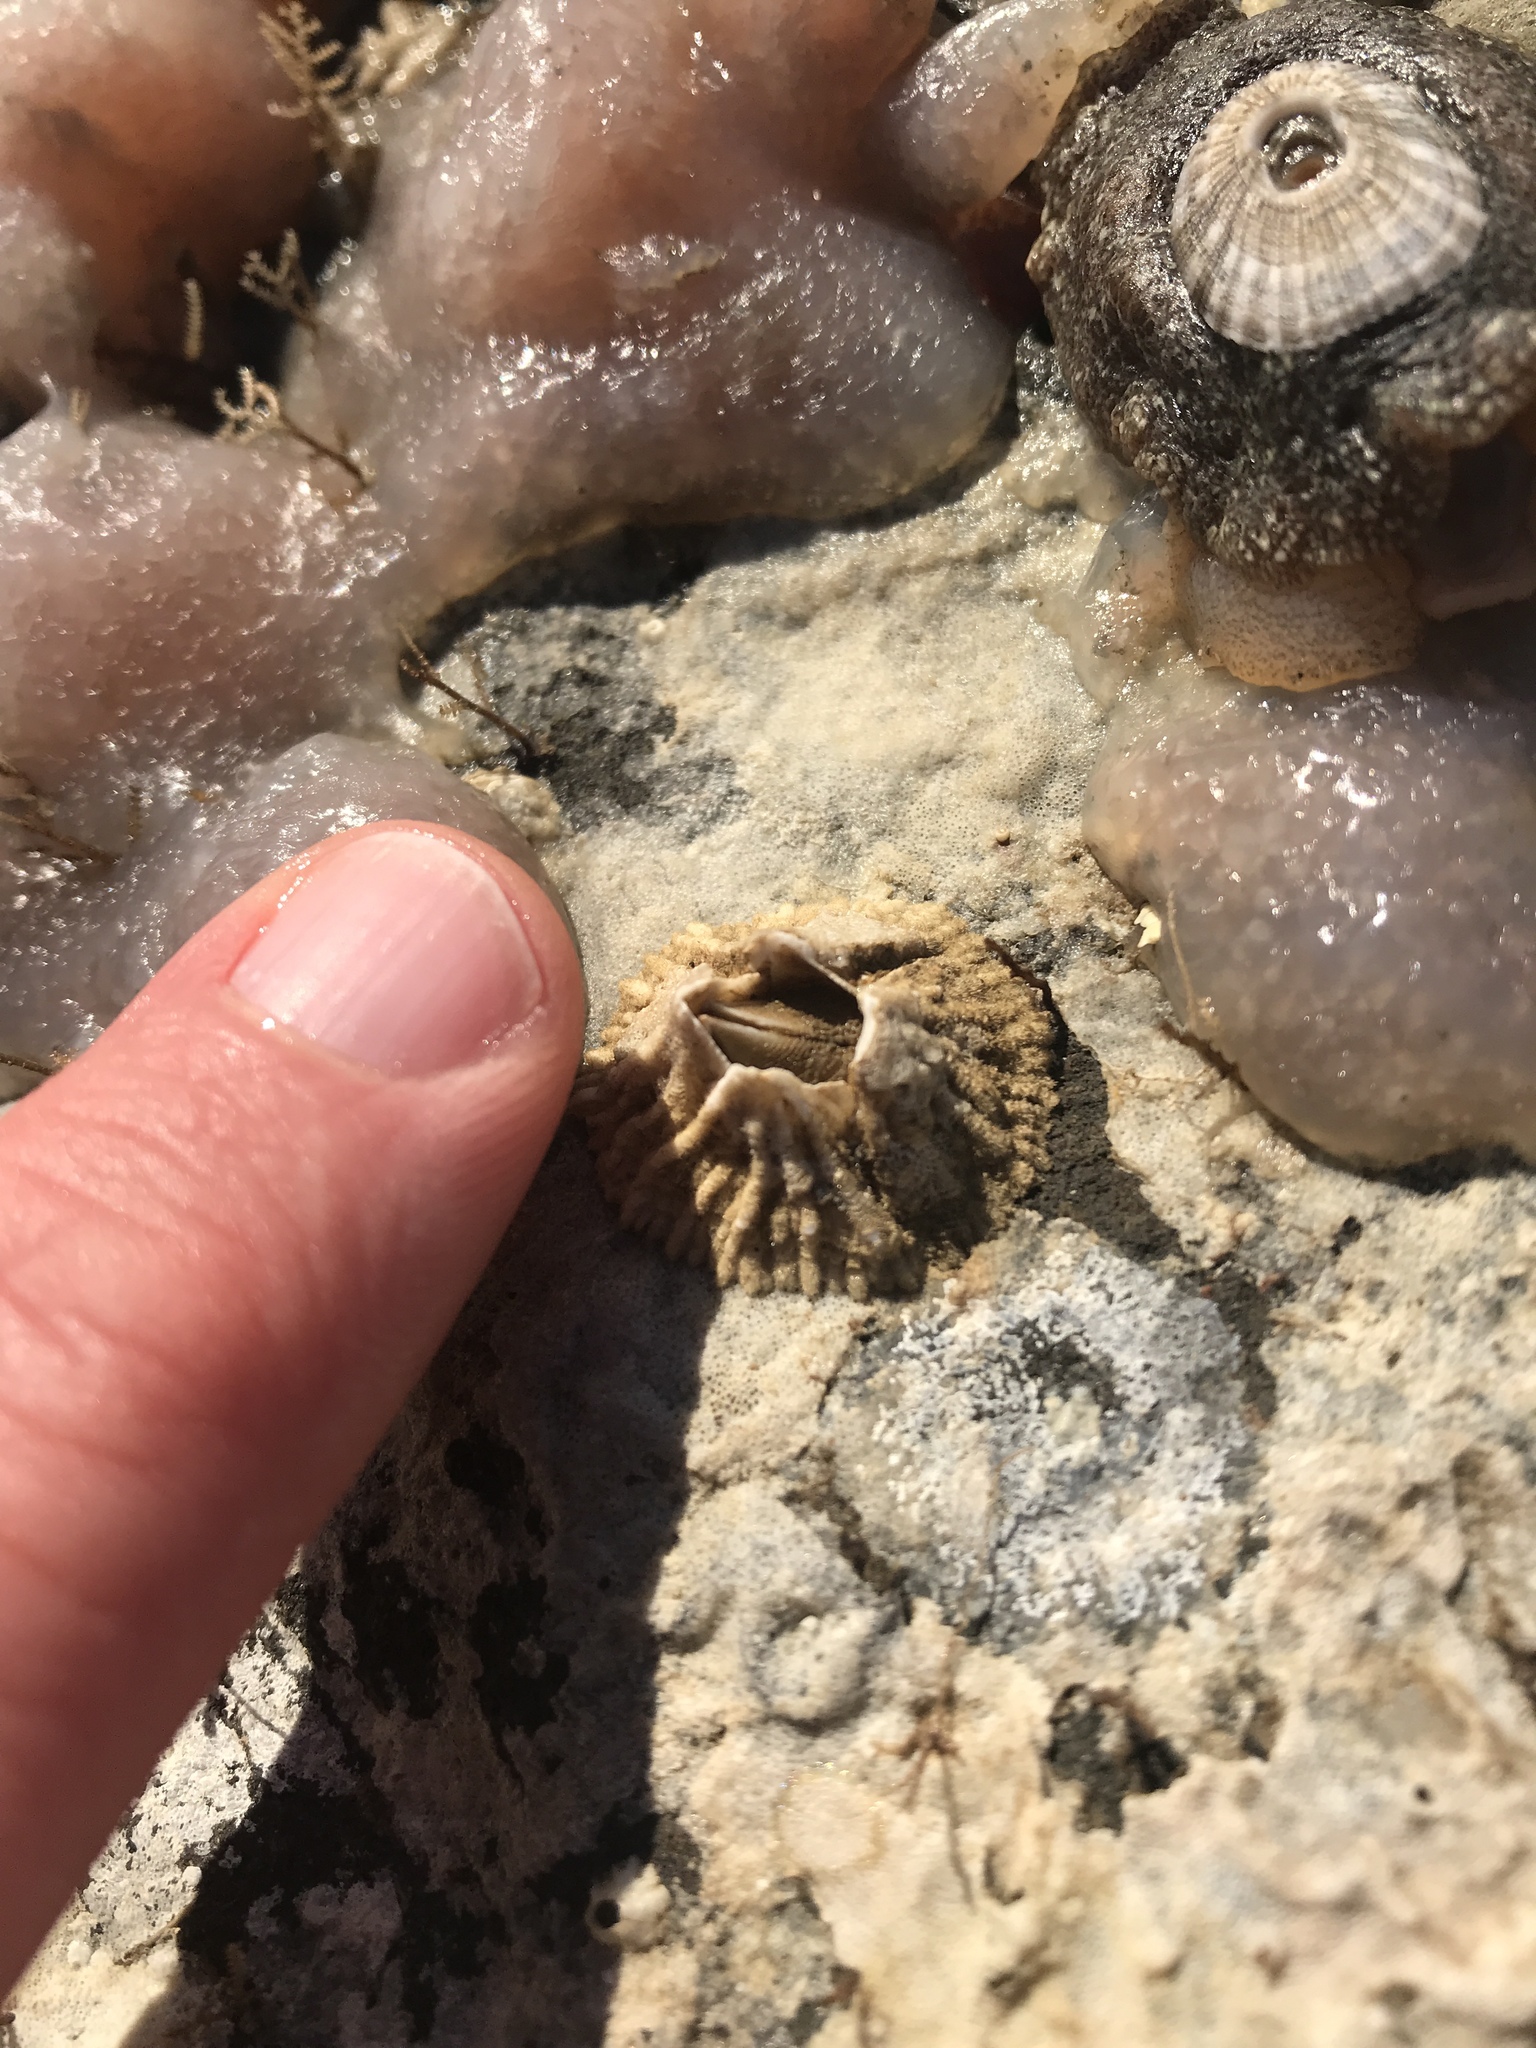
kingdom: Animalia
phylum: Arthropoda
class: Maxillopoda
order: Sessilia
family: Tetraclitidae
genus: Tetraclita
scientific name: Tetraclita rubescens
